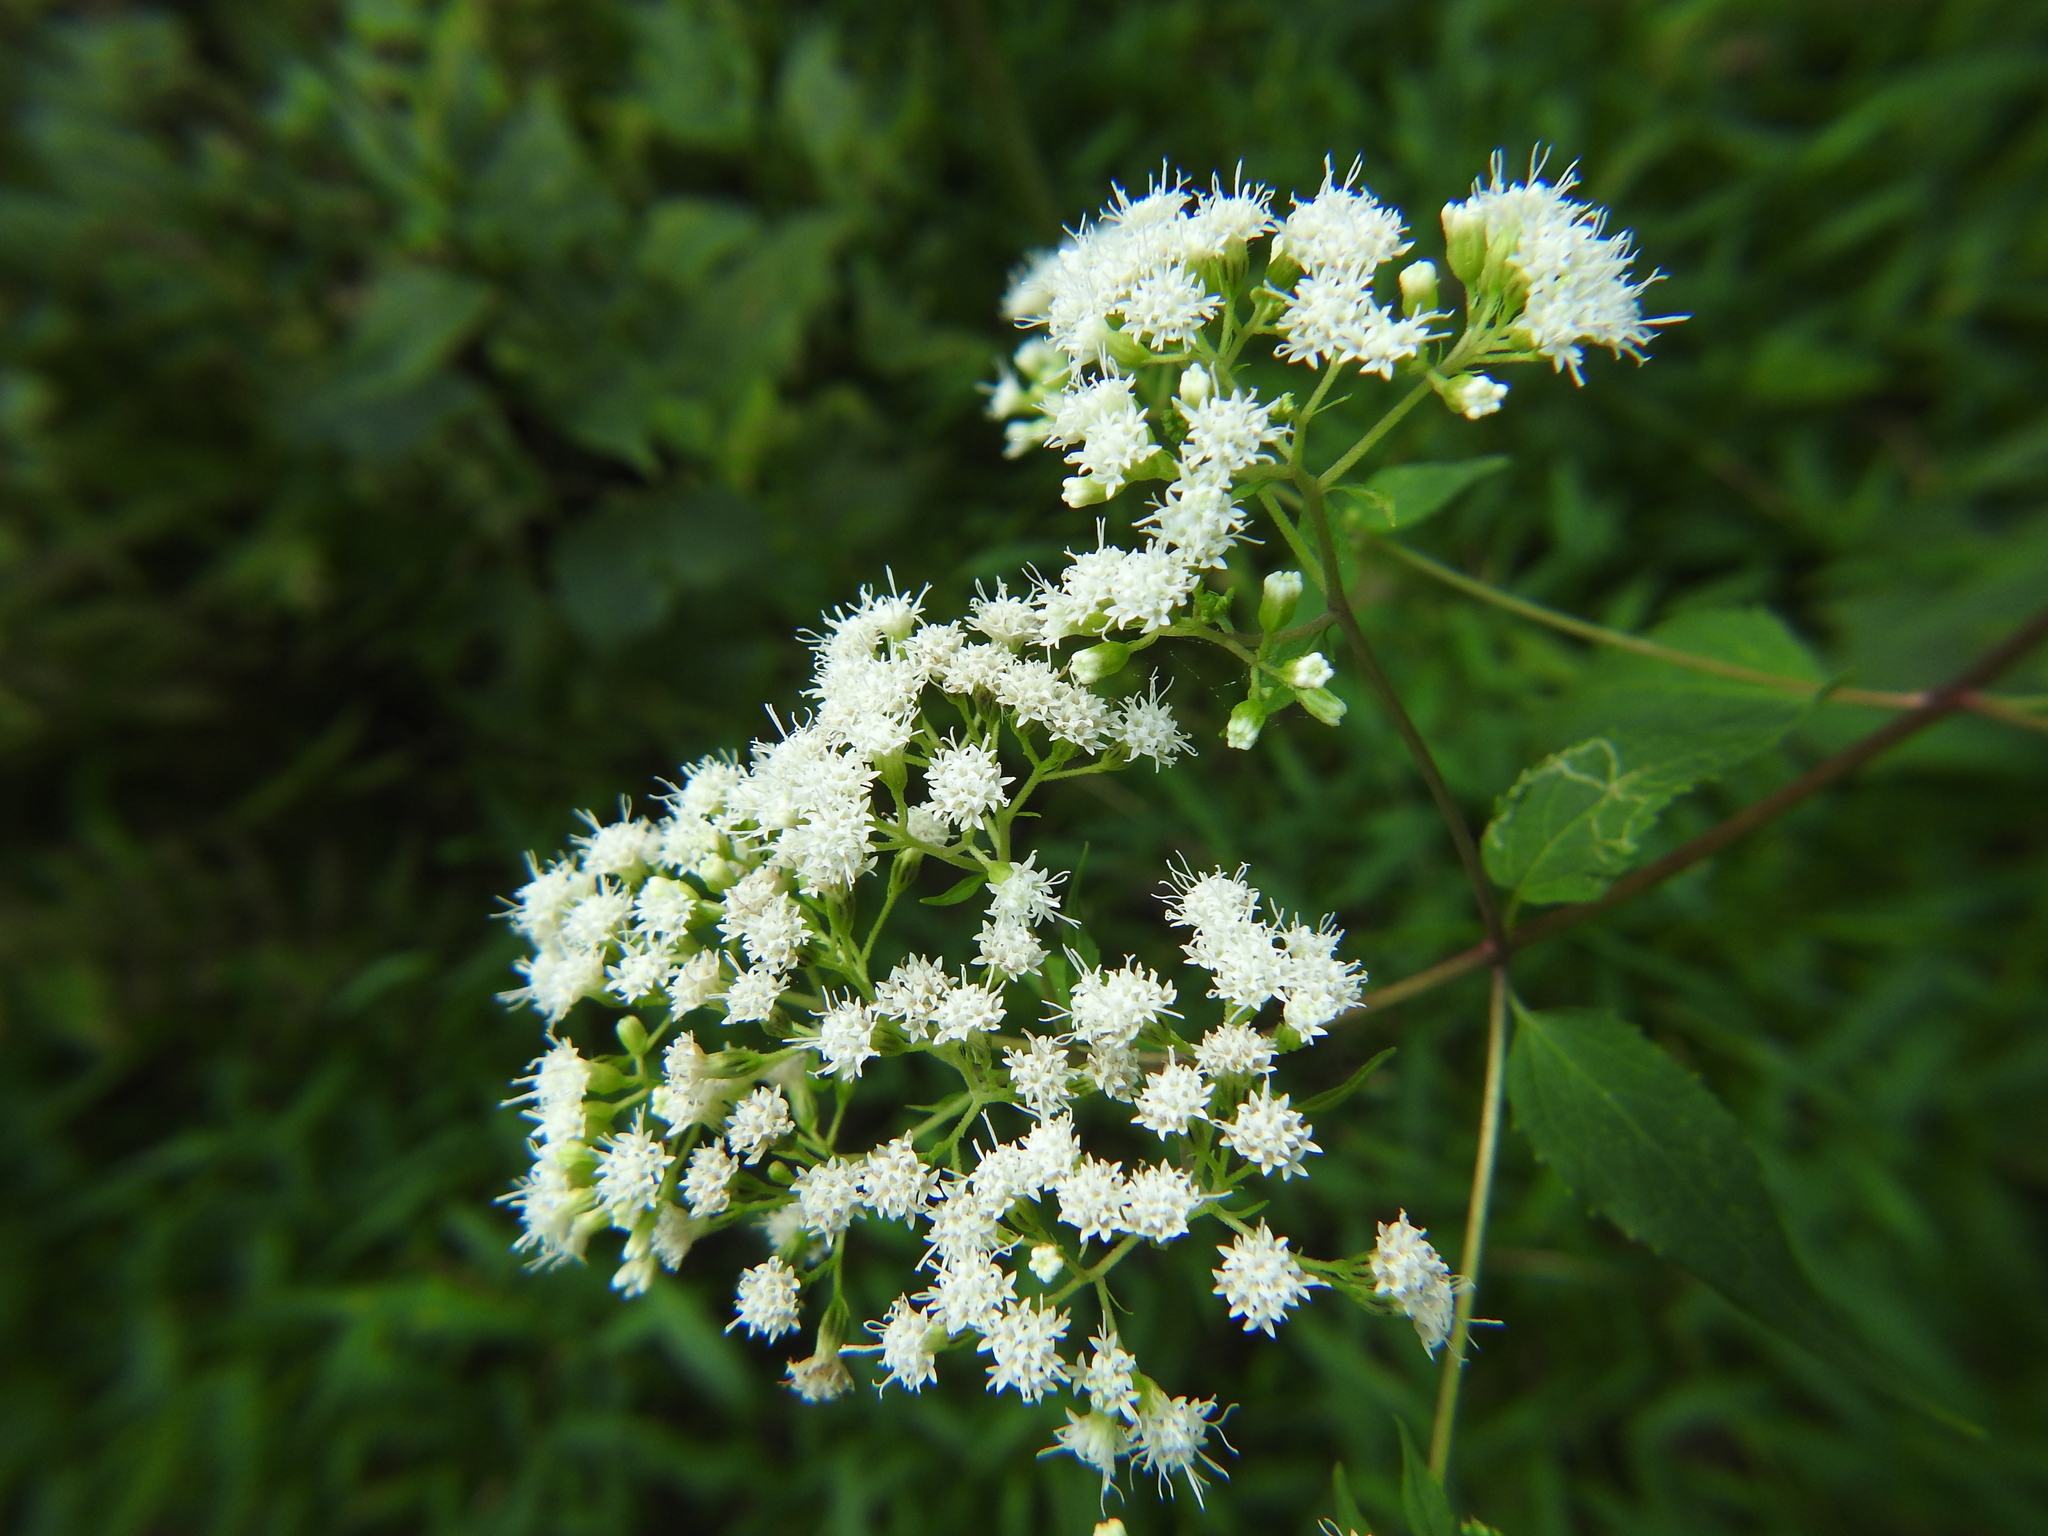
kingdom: Plantae
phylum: Tracheophyta
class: Magnoliopsida
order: Asterales
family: Asteraceae
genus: Ageratina
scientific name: Ageratina altissima
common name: White snakeroot
